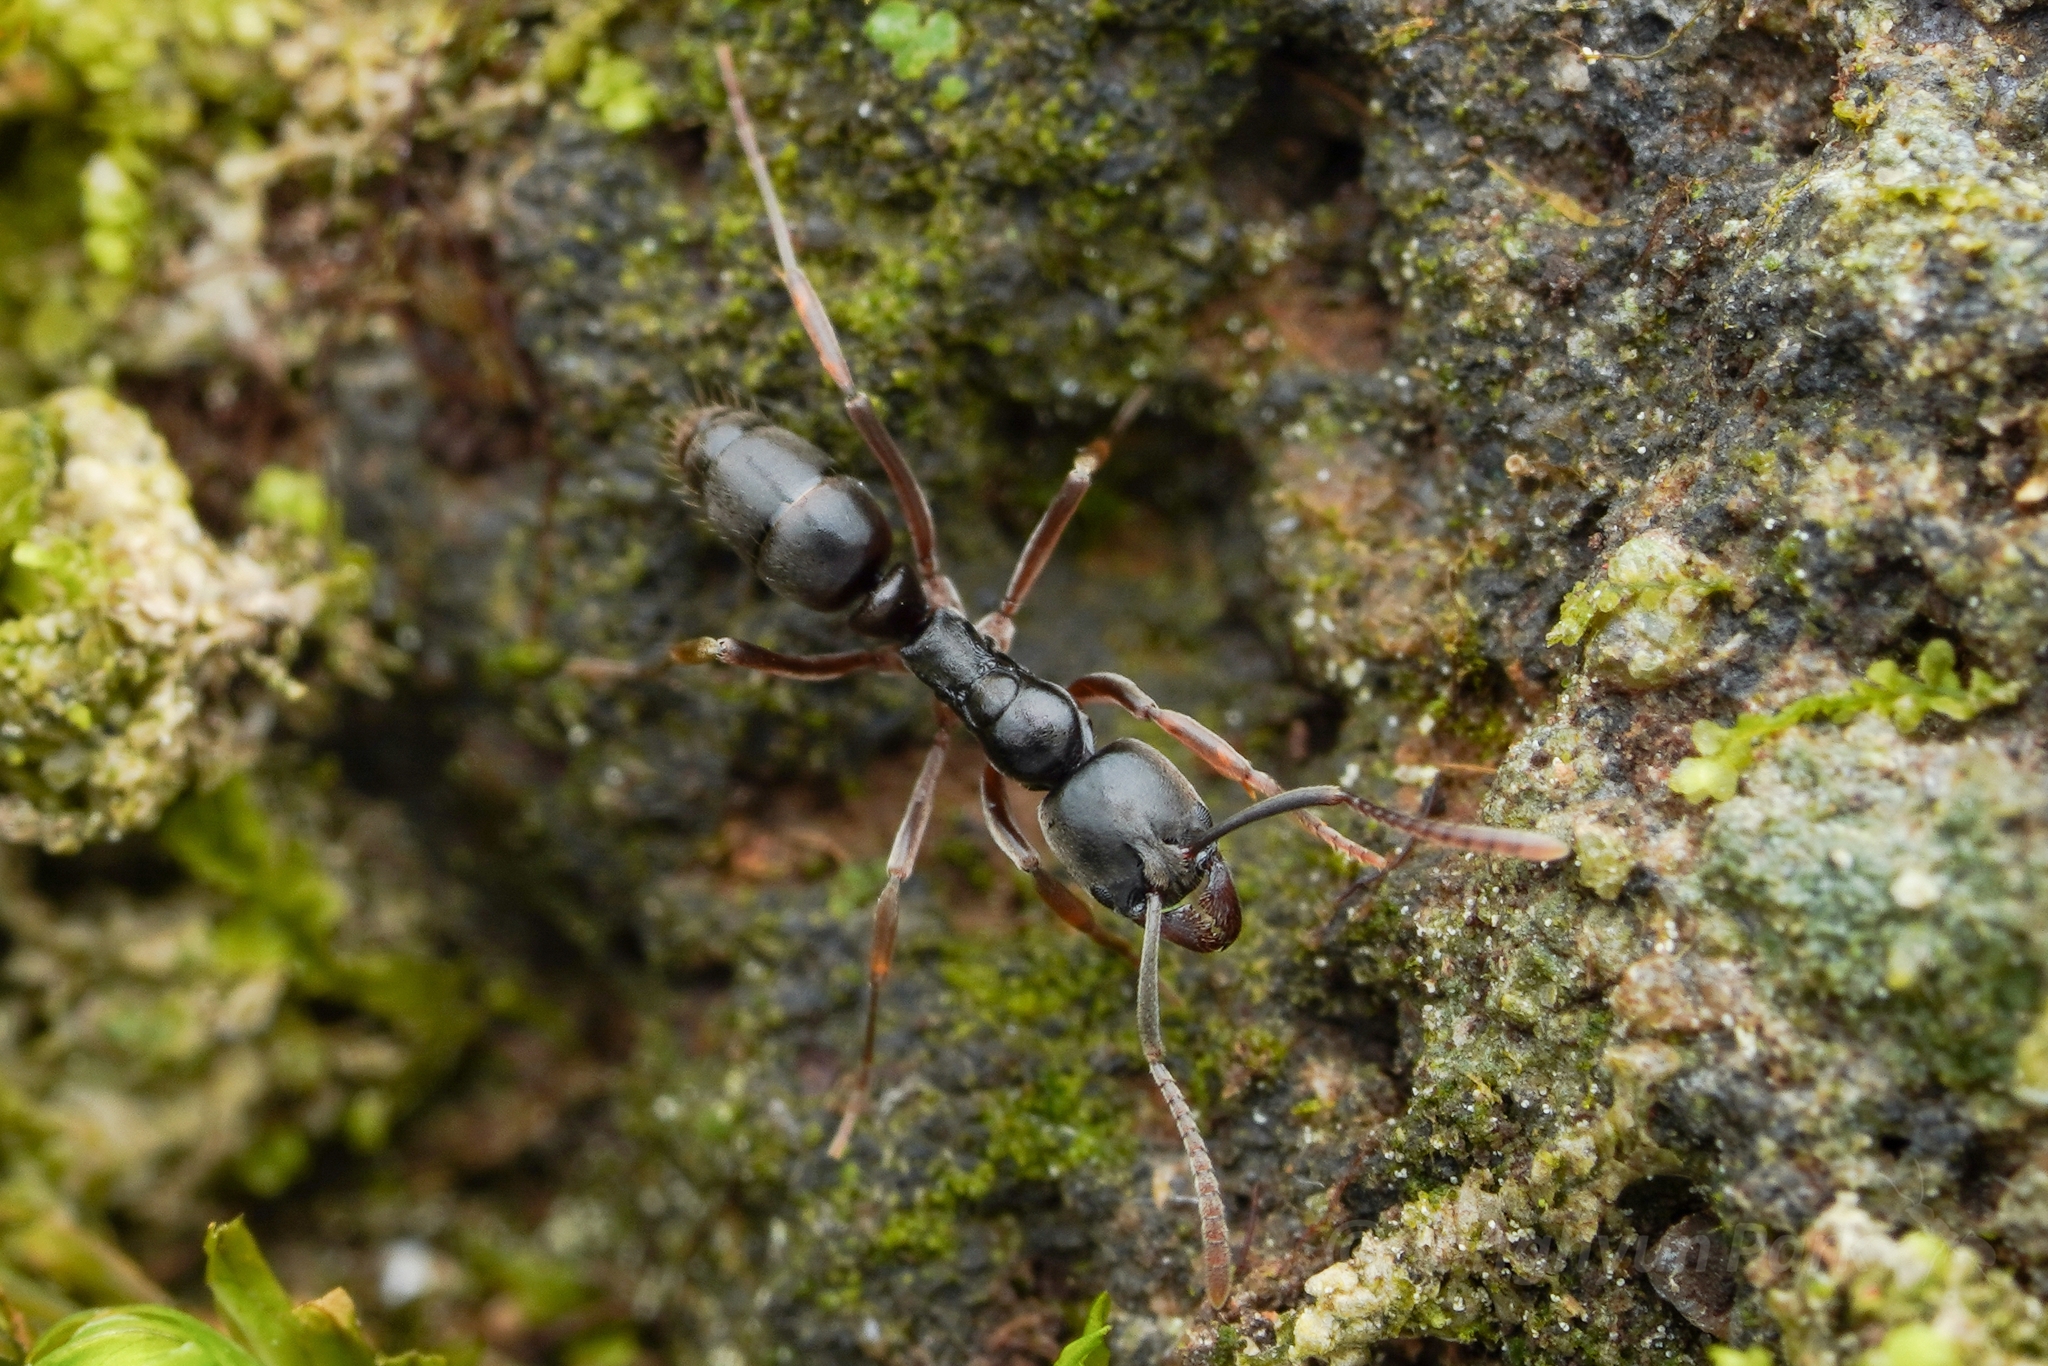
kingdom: Animalia
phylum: Arthropoda
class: Insecta
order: Hymenoptera
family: Formicidae
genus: Pachycondyla
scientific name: Pachycondyla chinensis
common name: Asian needle ant
